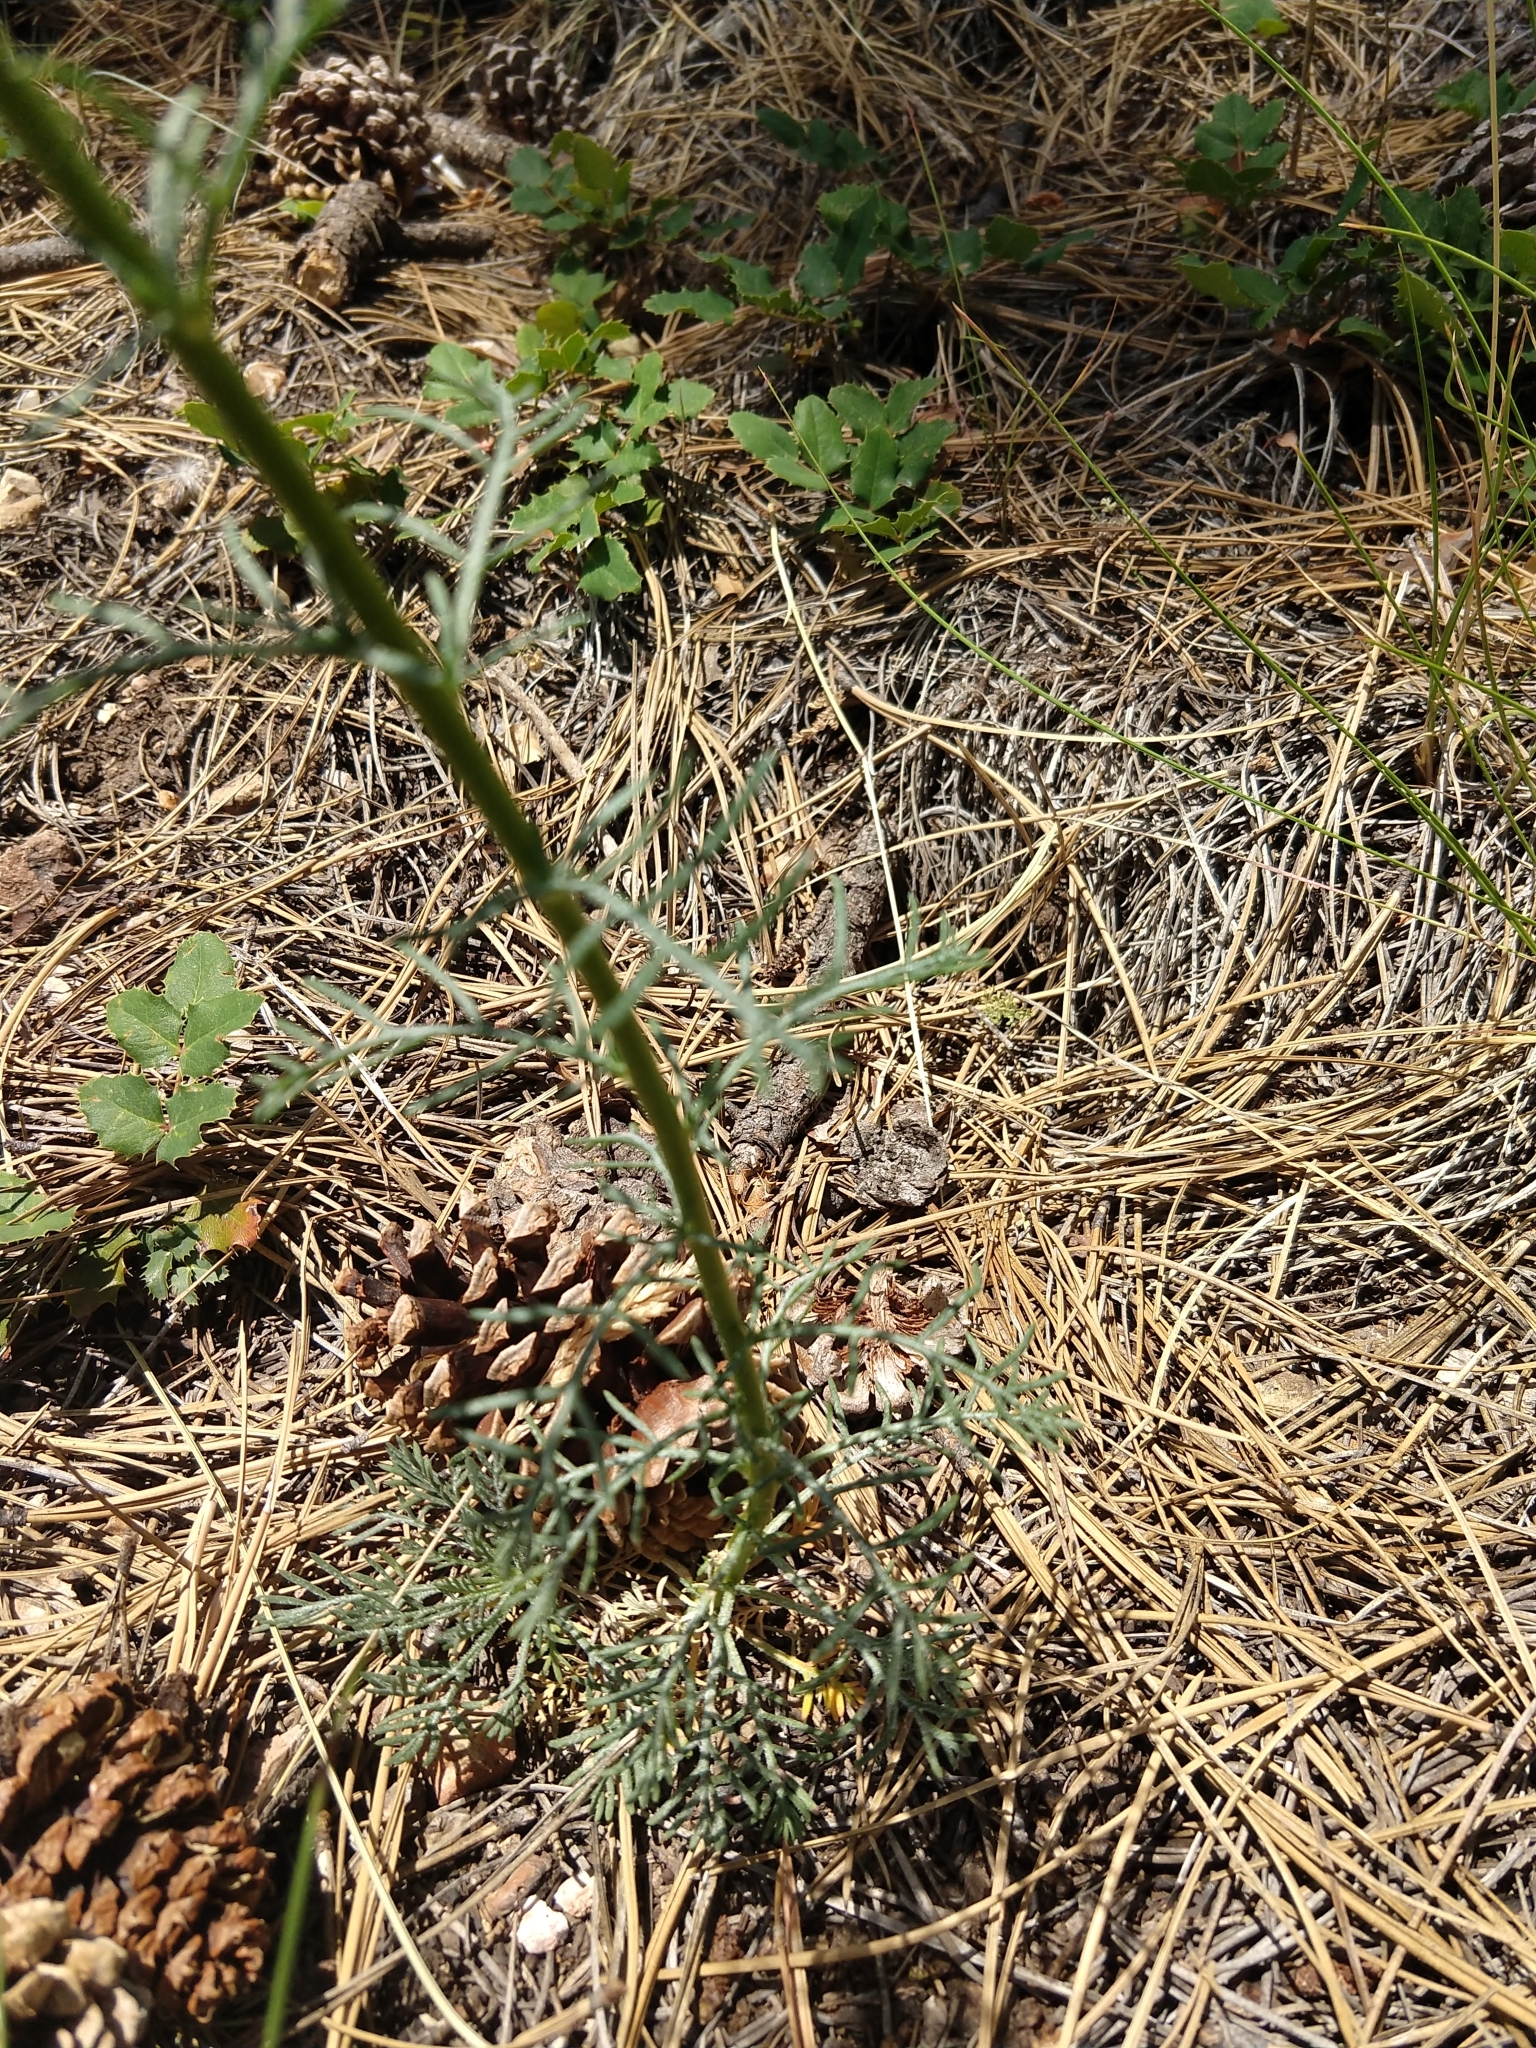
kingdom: Plantae
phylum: Tracheophyta
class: Magnoliopsida
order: Ericales
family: Polemoniaceae
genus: Ipomopsis
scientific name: Ipomopsis aggregata
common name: Scarlet gilia
